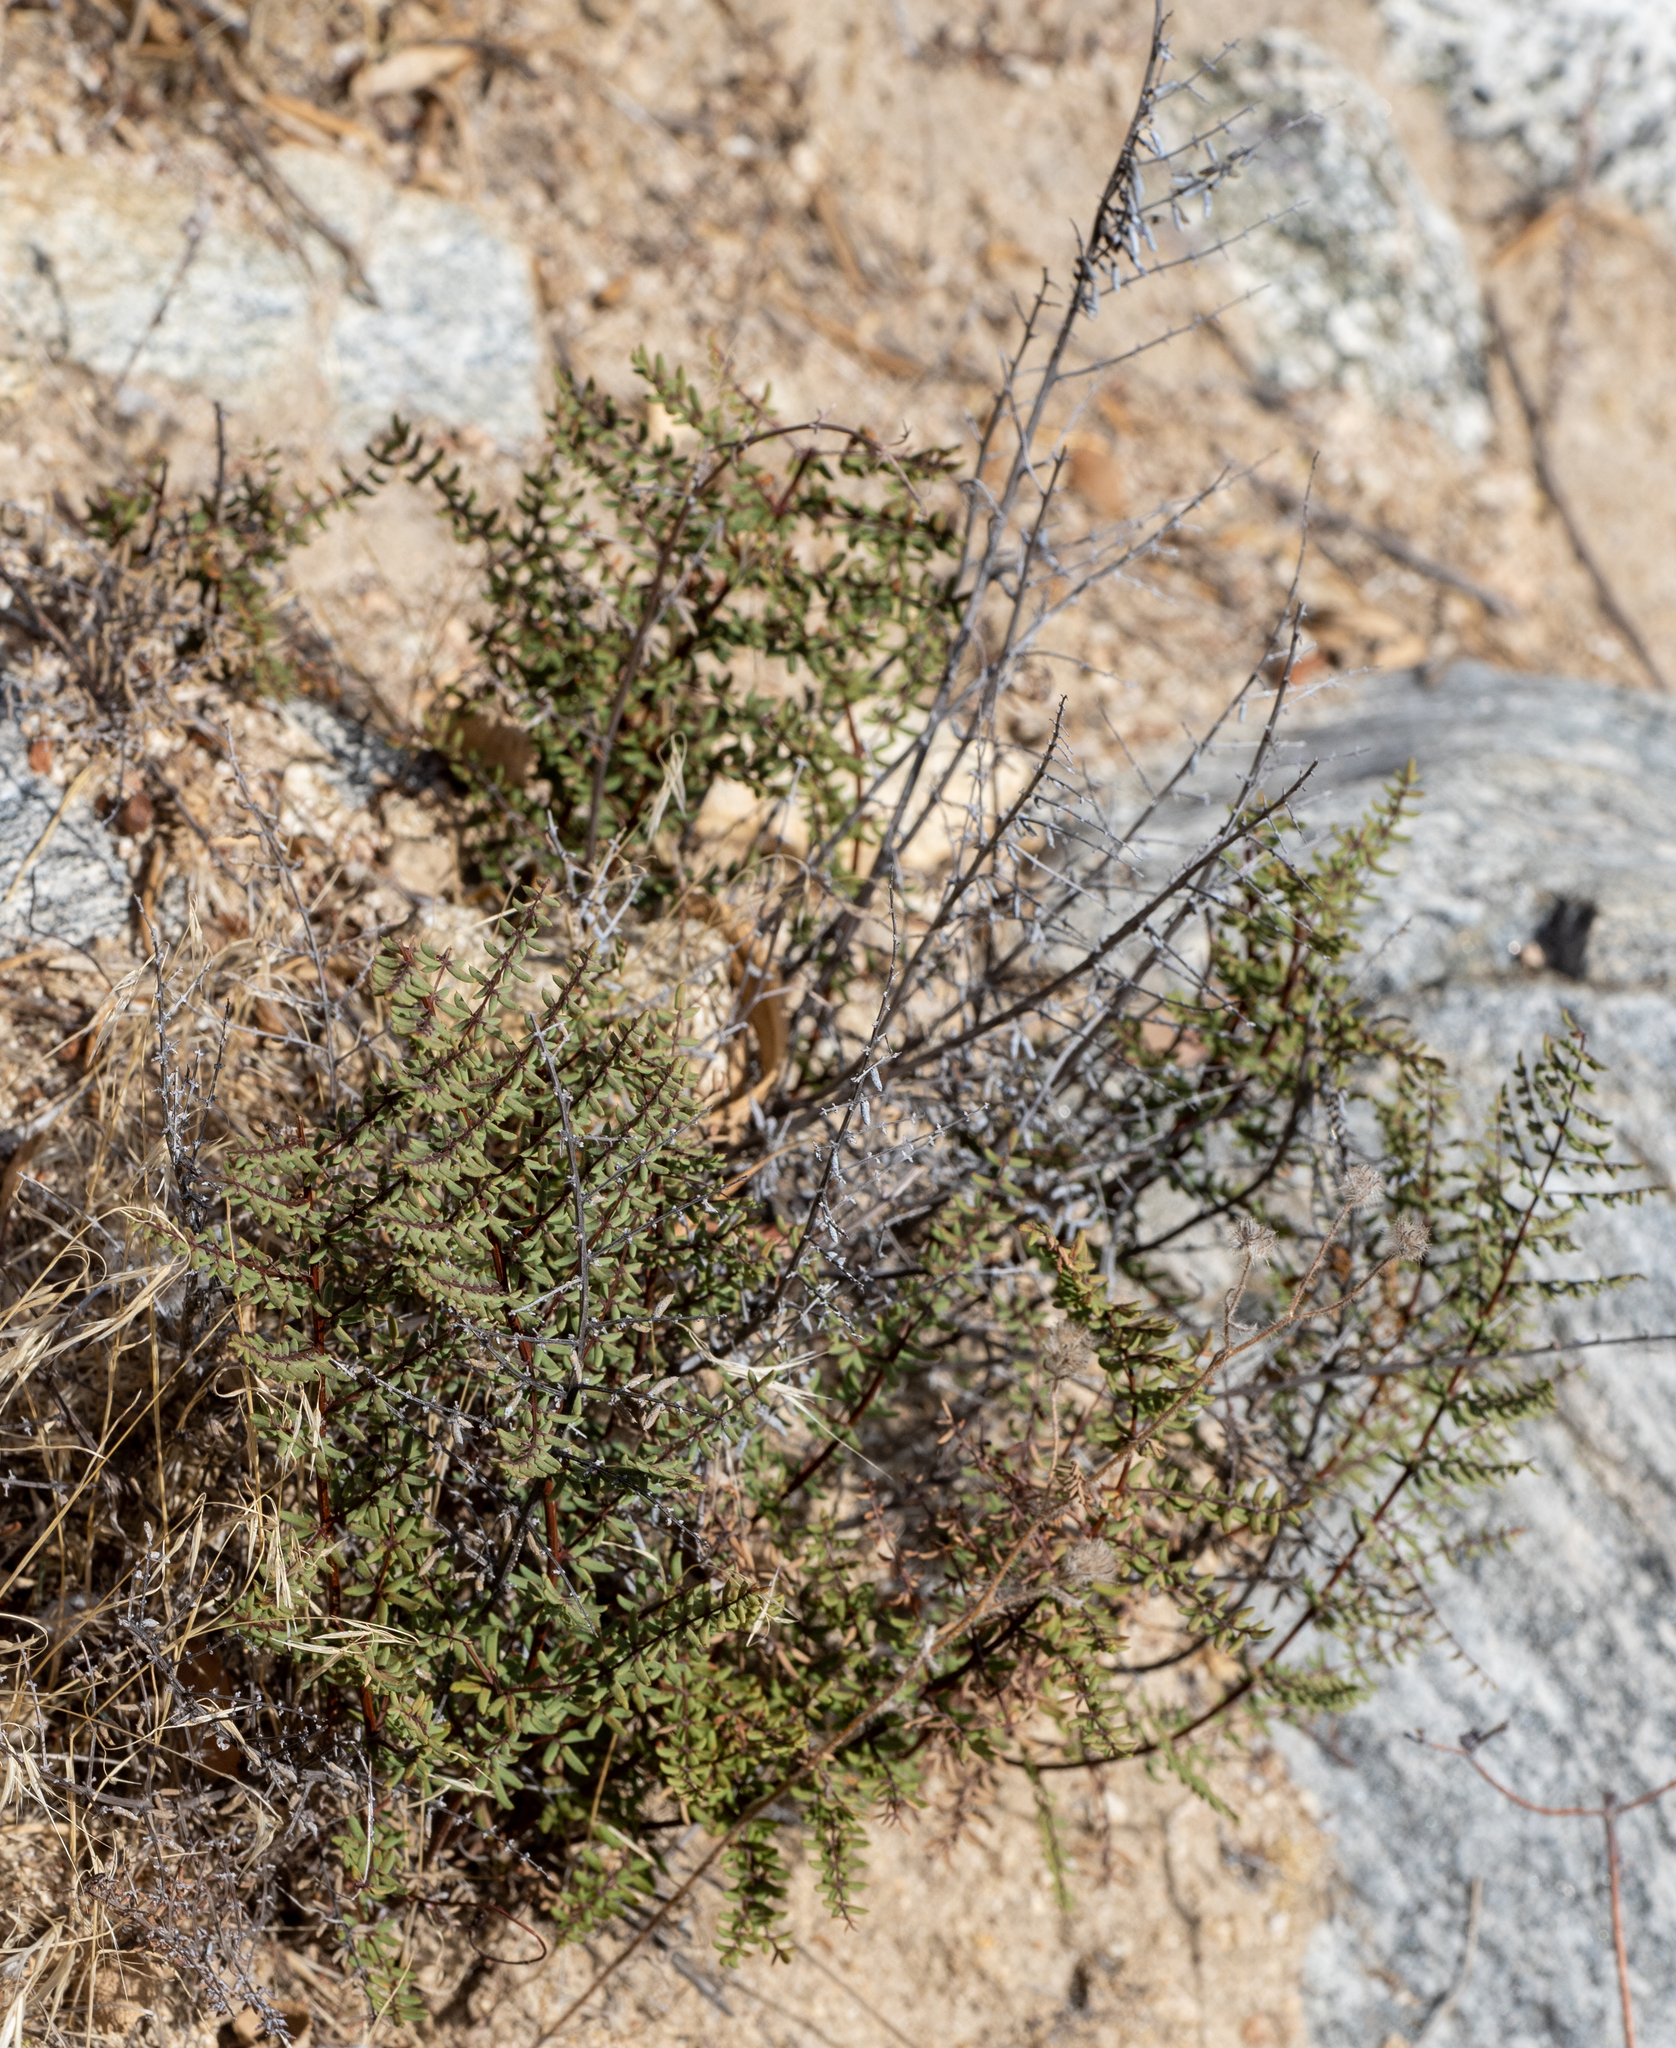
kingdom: Plantae
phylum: Tracheophyta
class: Polypodiopsida
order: Polypodiales
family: Pteridaceae
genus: Pellaea
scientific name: Pellaea mucronata
